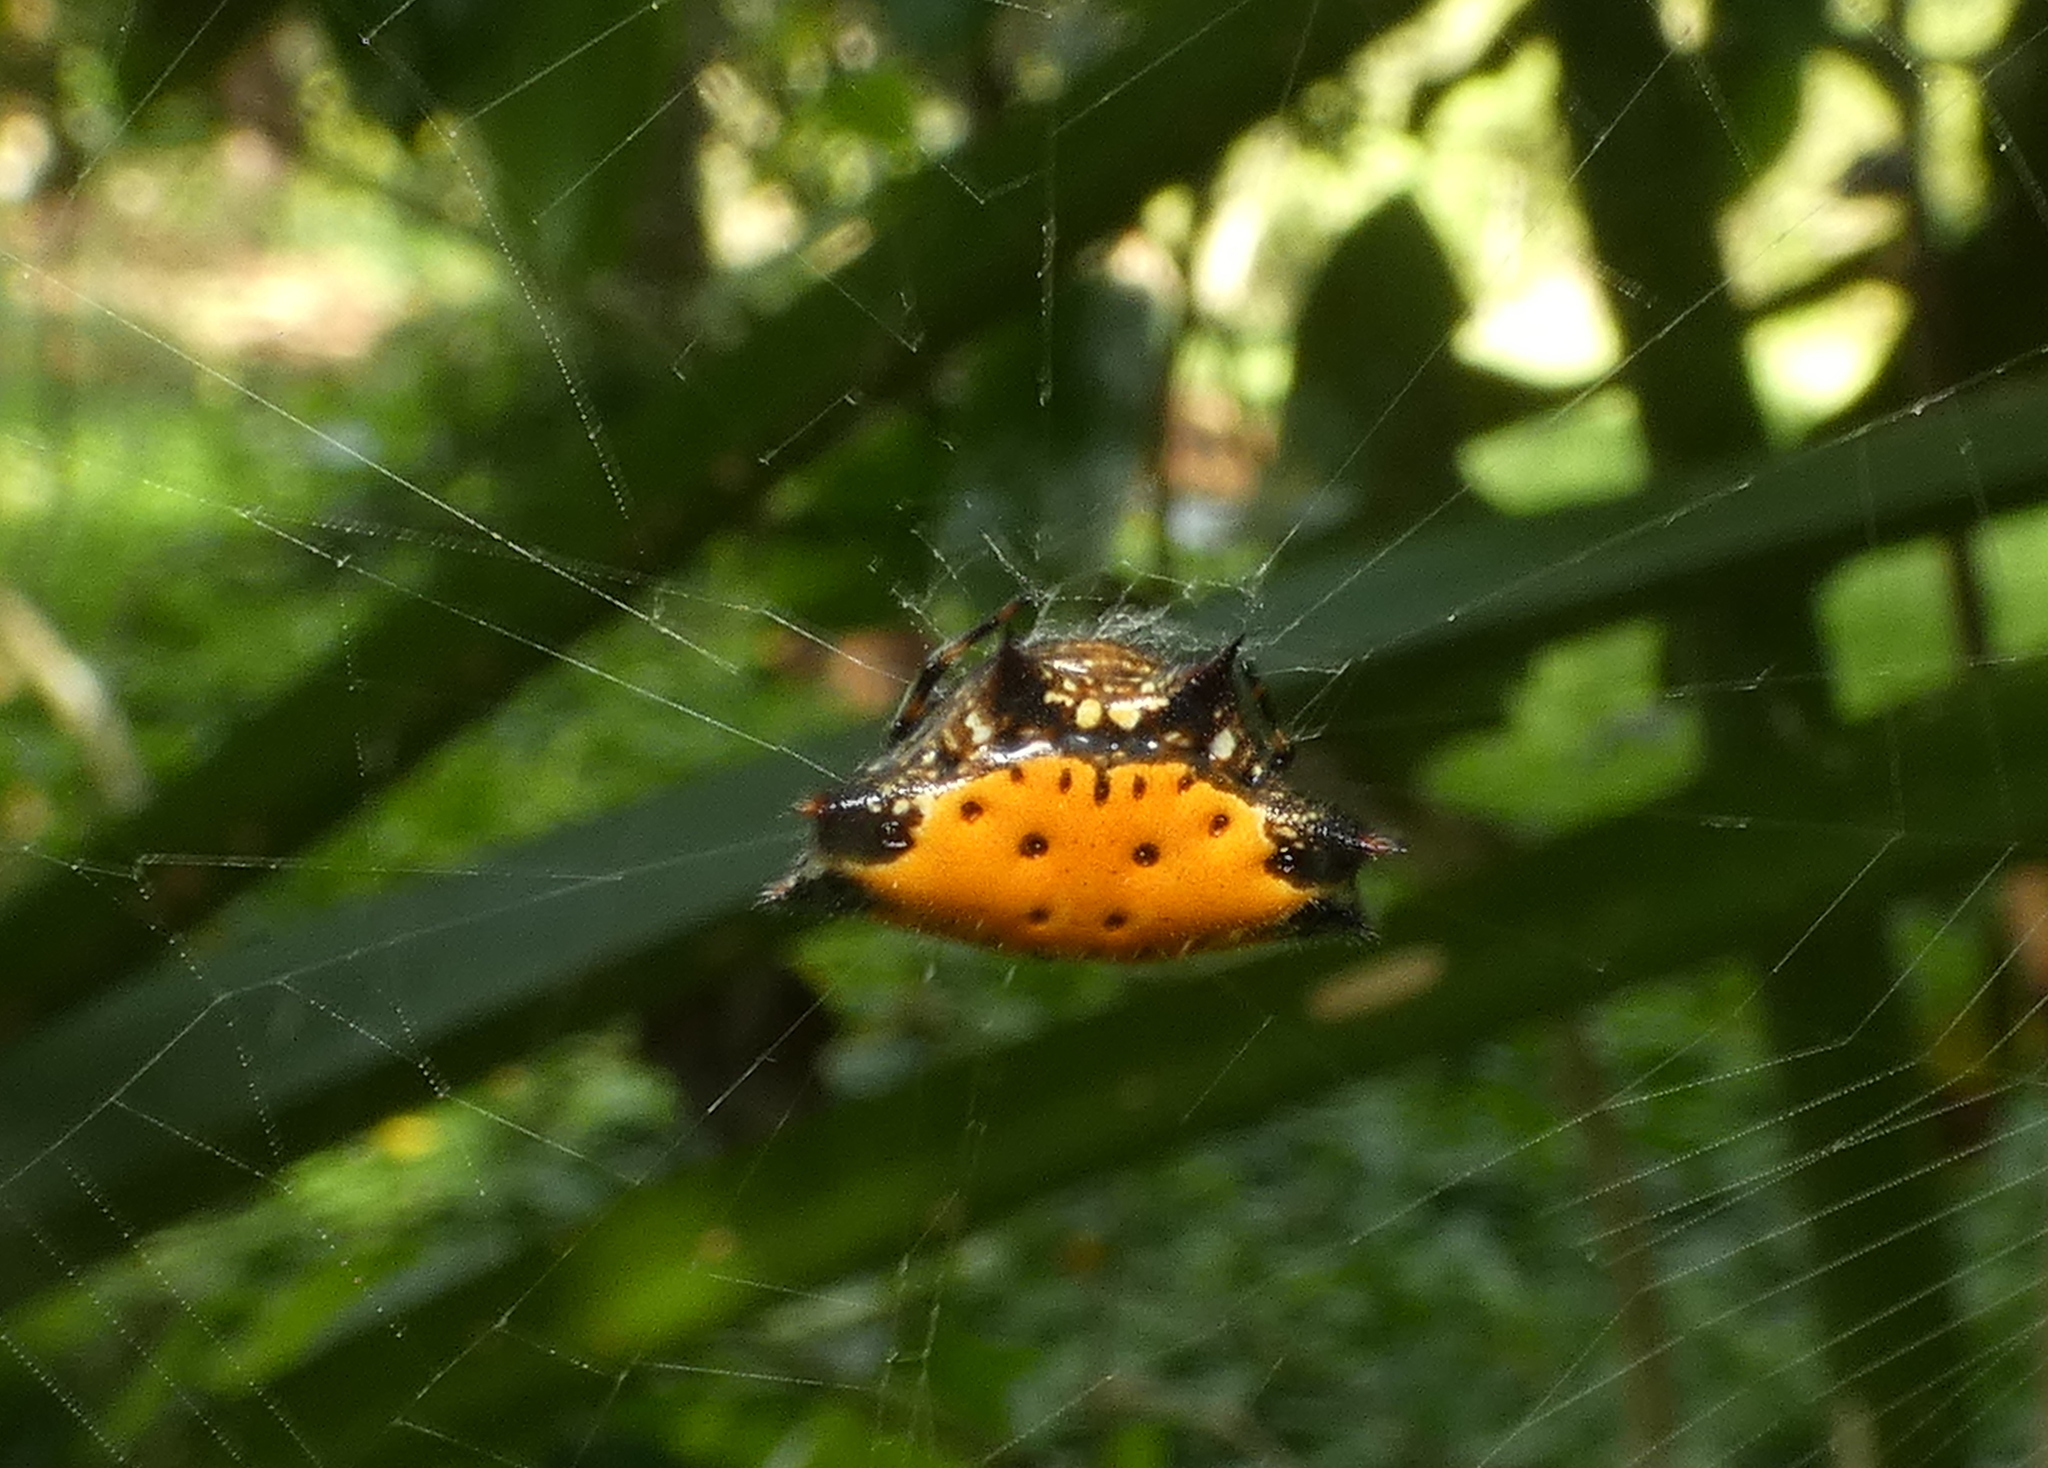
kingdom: Animalia
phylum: Arthropoda
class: Arachnida
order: Araneae
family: Araneidae
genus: Gasteracantha
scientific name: Gasteracantha cancriformis
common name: Orb weavers
